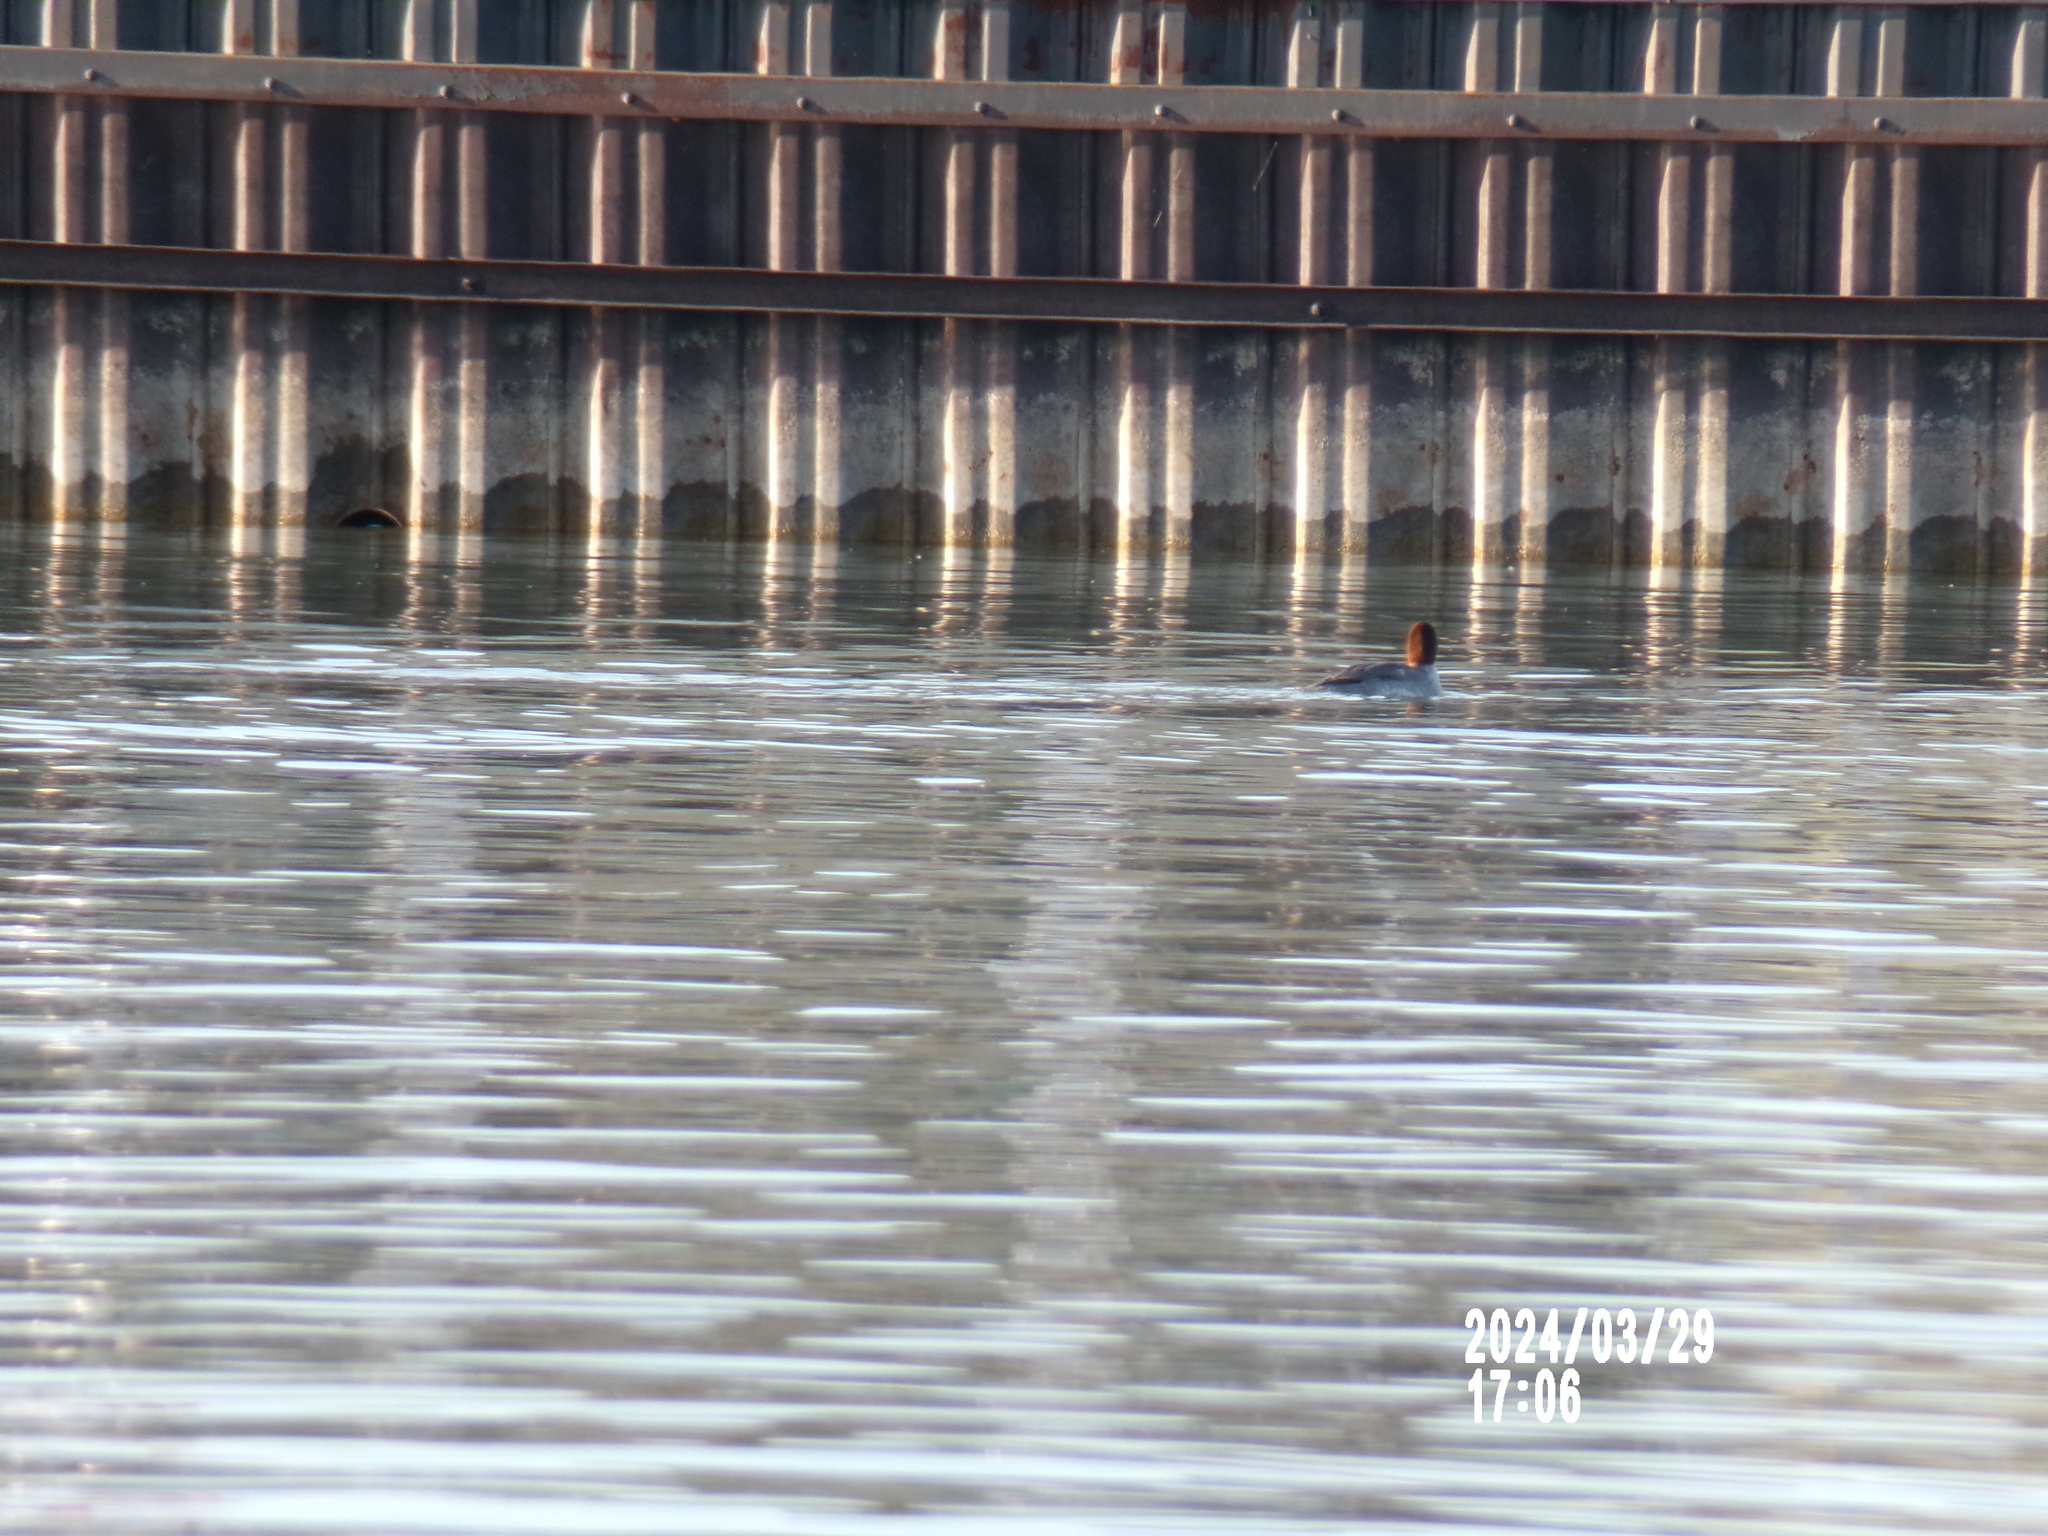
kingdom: Animalia
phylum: Chordata
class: Aves
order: Anseriformes
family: Anatidae
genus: Mergus
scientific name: Mergus merganser
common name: Common merganser
